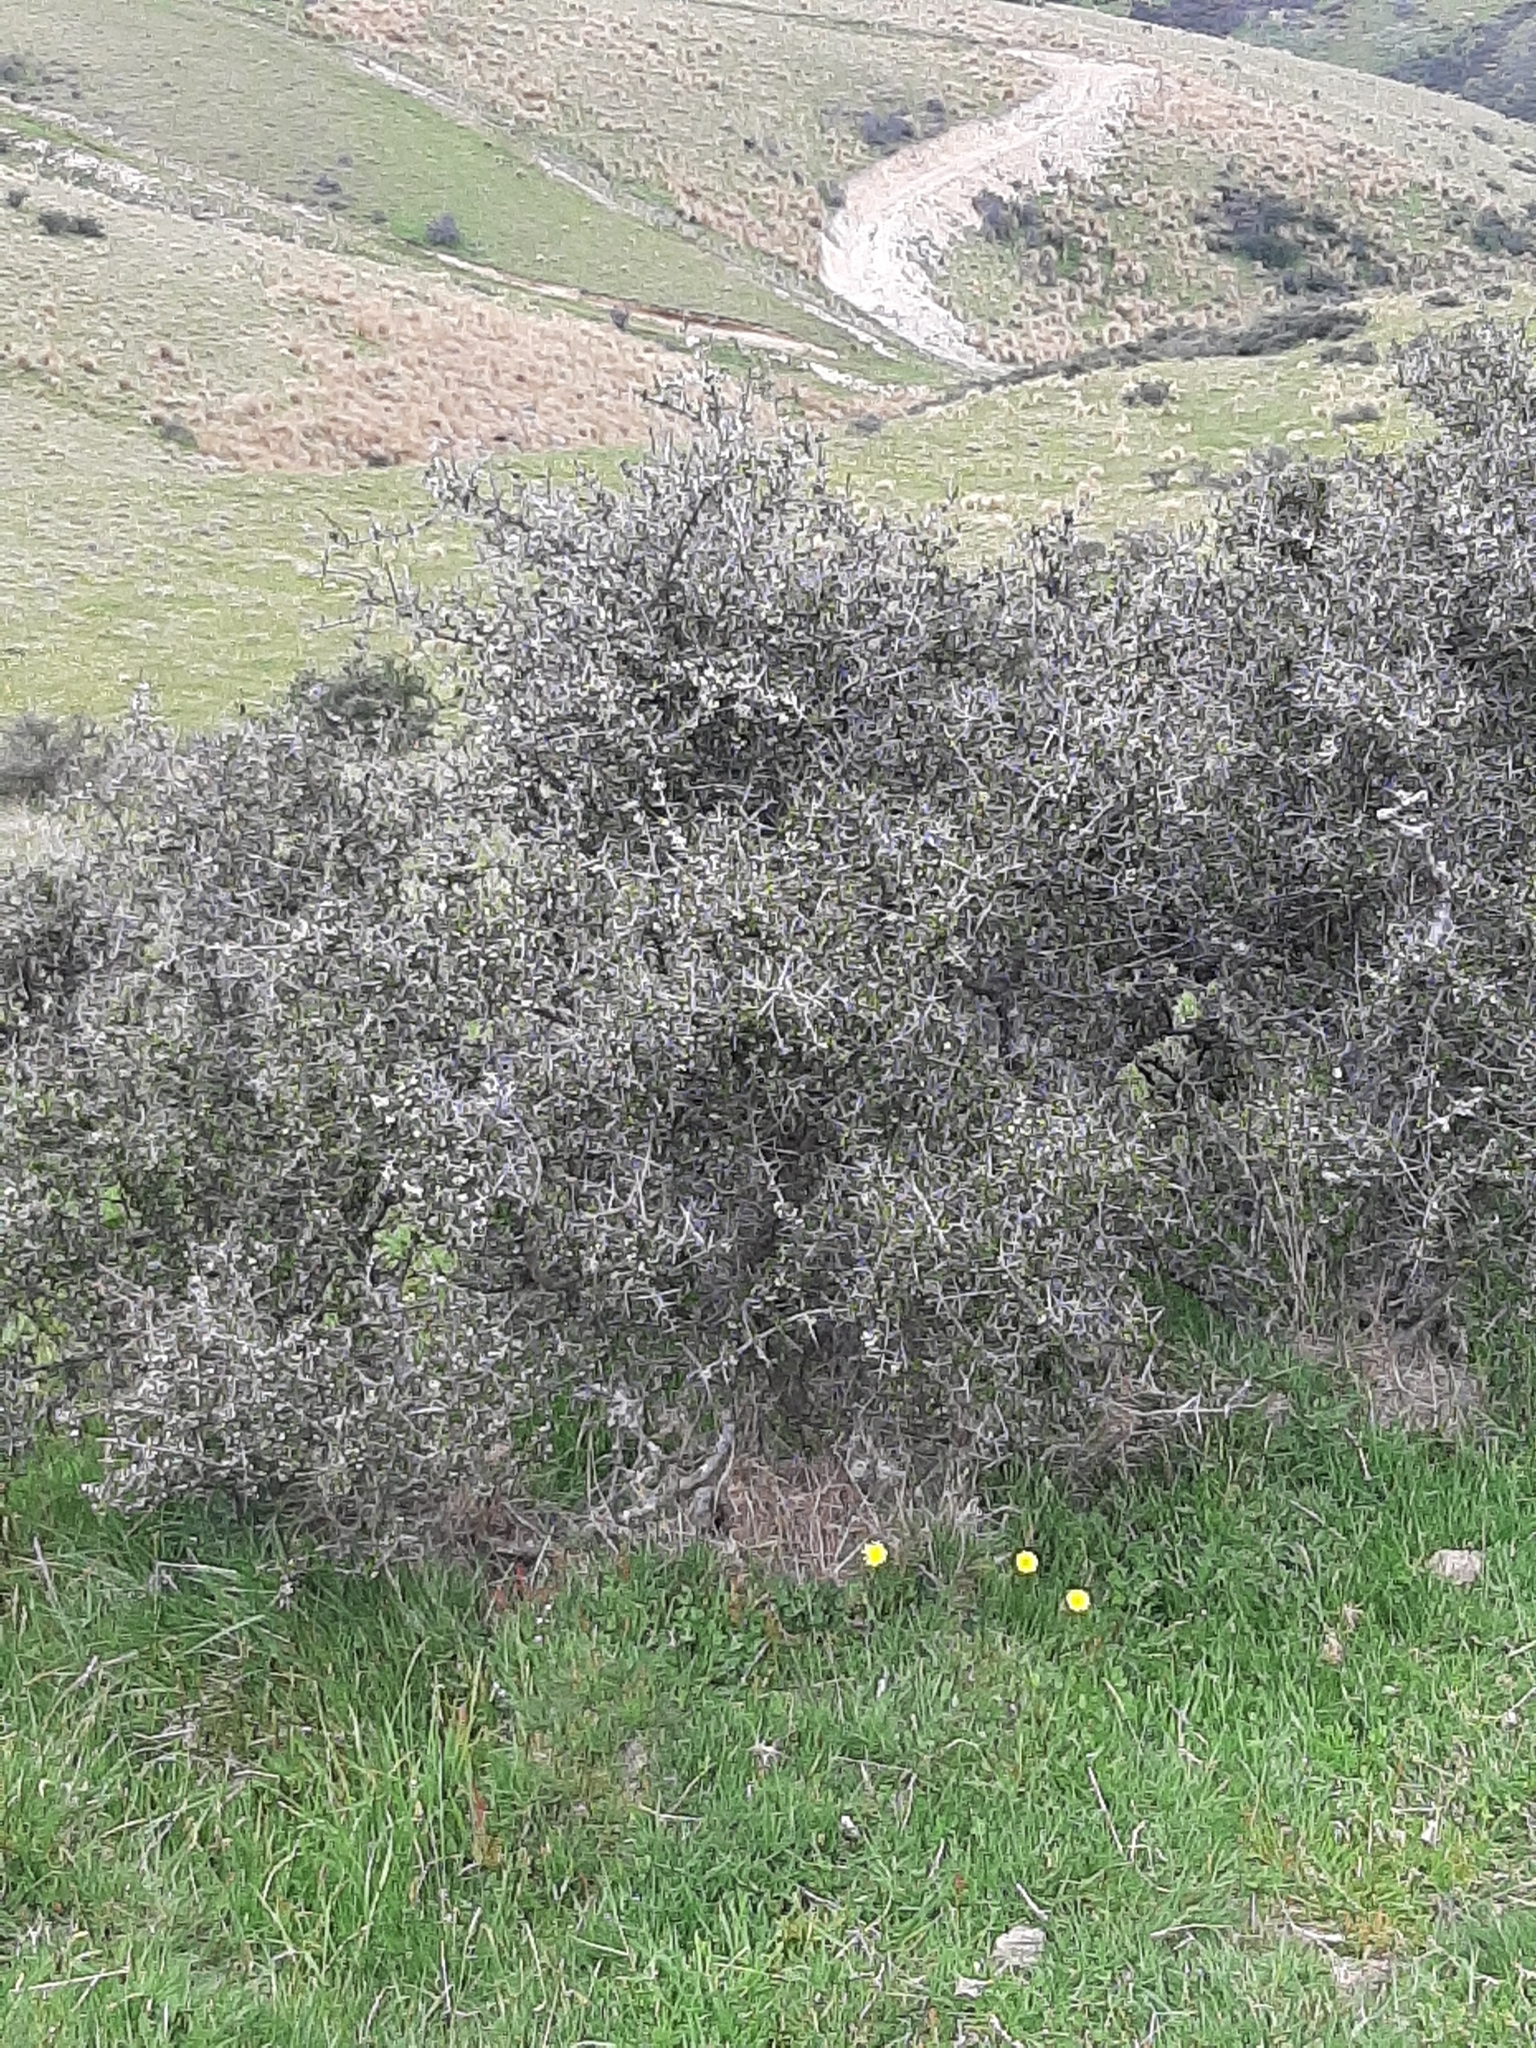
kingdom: Plantae
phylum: Tracheophyta
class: Magnoliopsida
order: Rosales
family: Rhamnaceae
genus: Discaria
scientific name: Discaria toumatou
